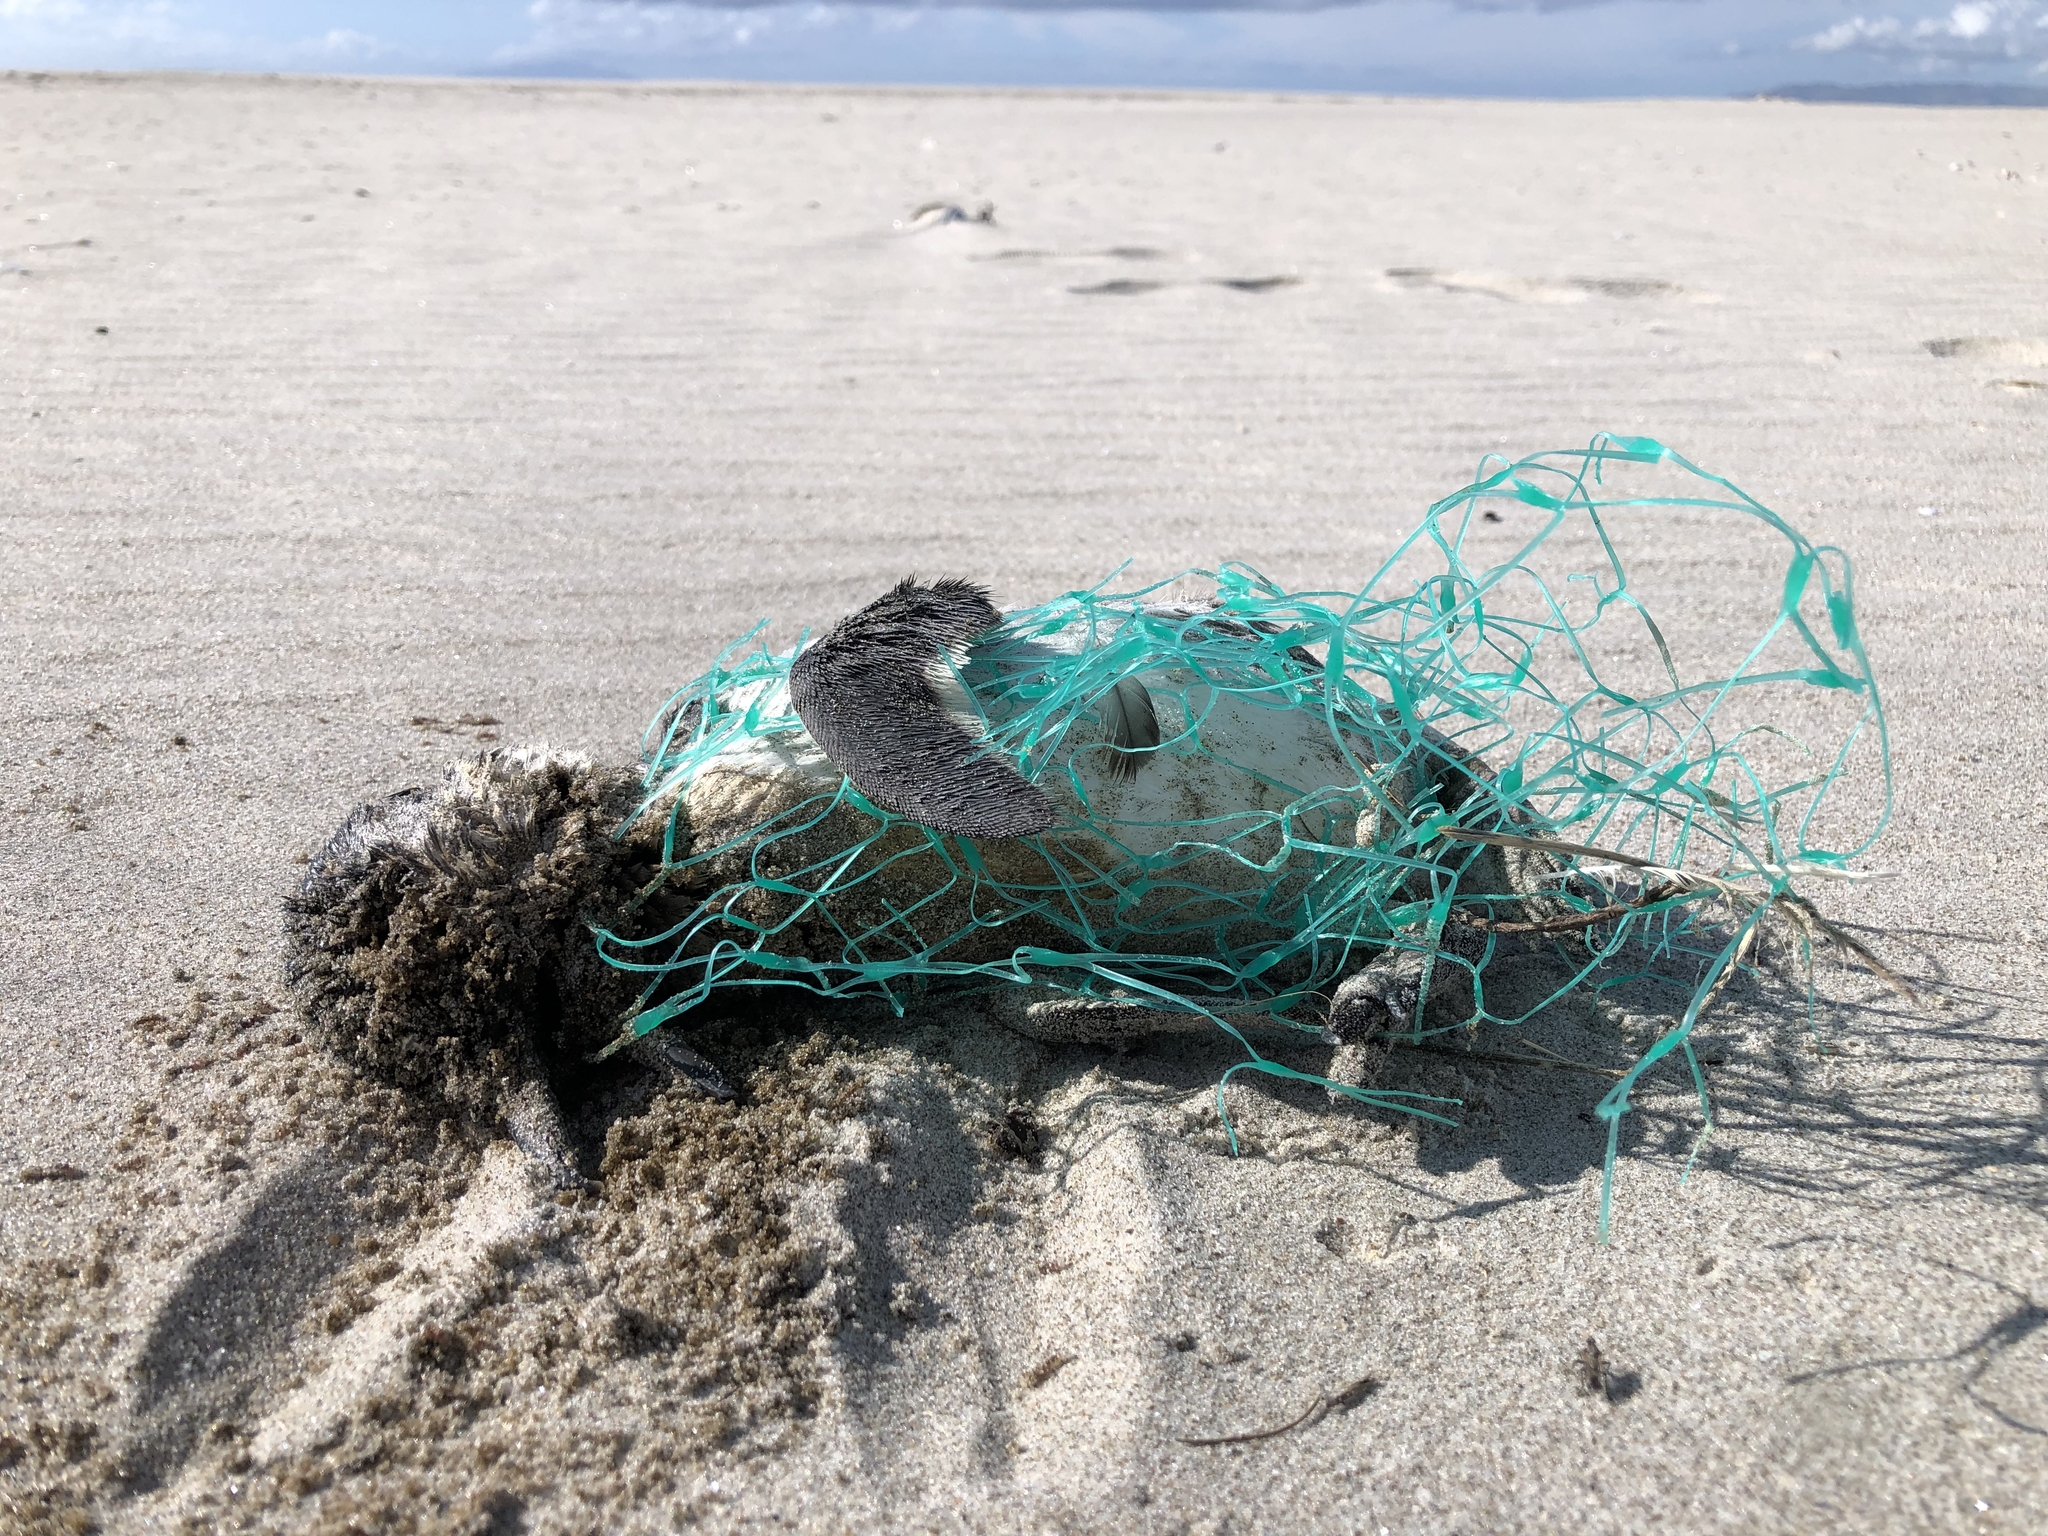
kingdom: Animalia
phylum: Chordata
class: Aves
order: Sphenisciformes
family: Spheniscidae
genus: Eudyptula
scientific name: Eudyptula minor
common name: Little penguin
